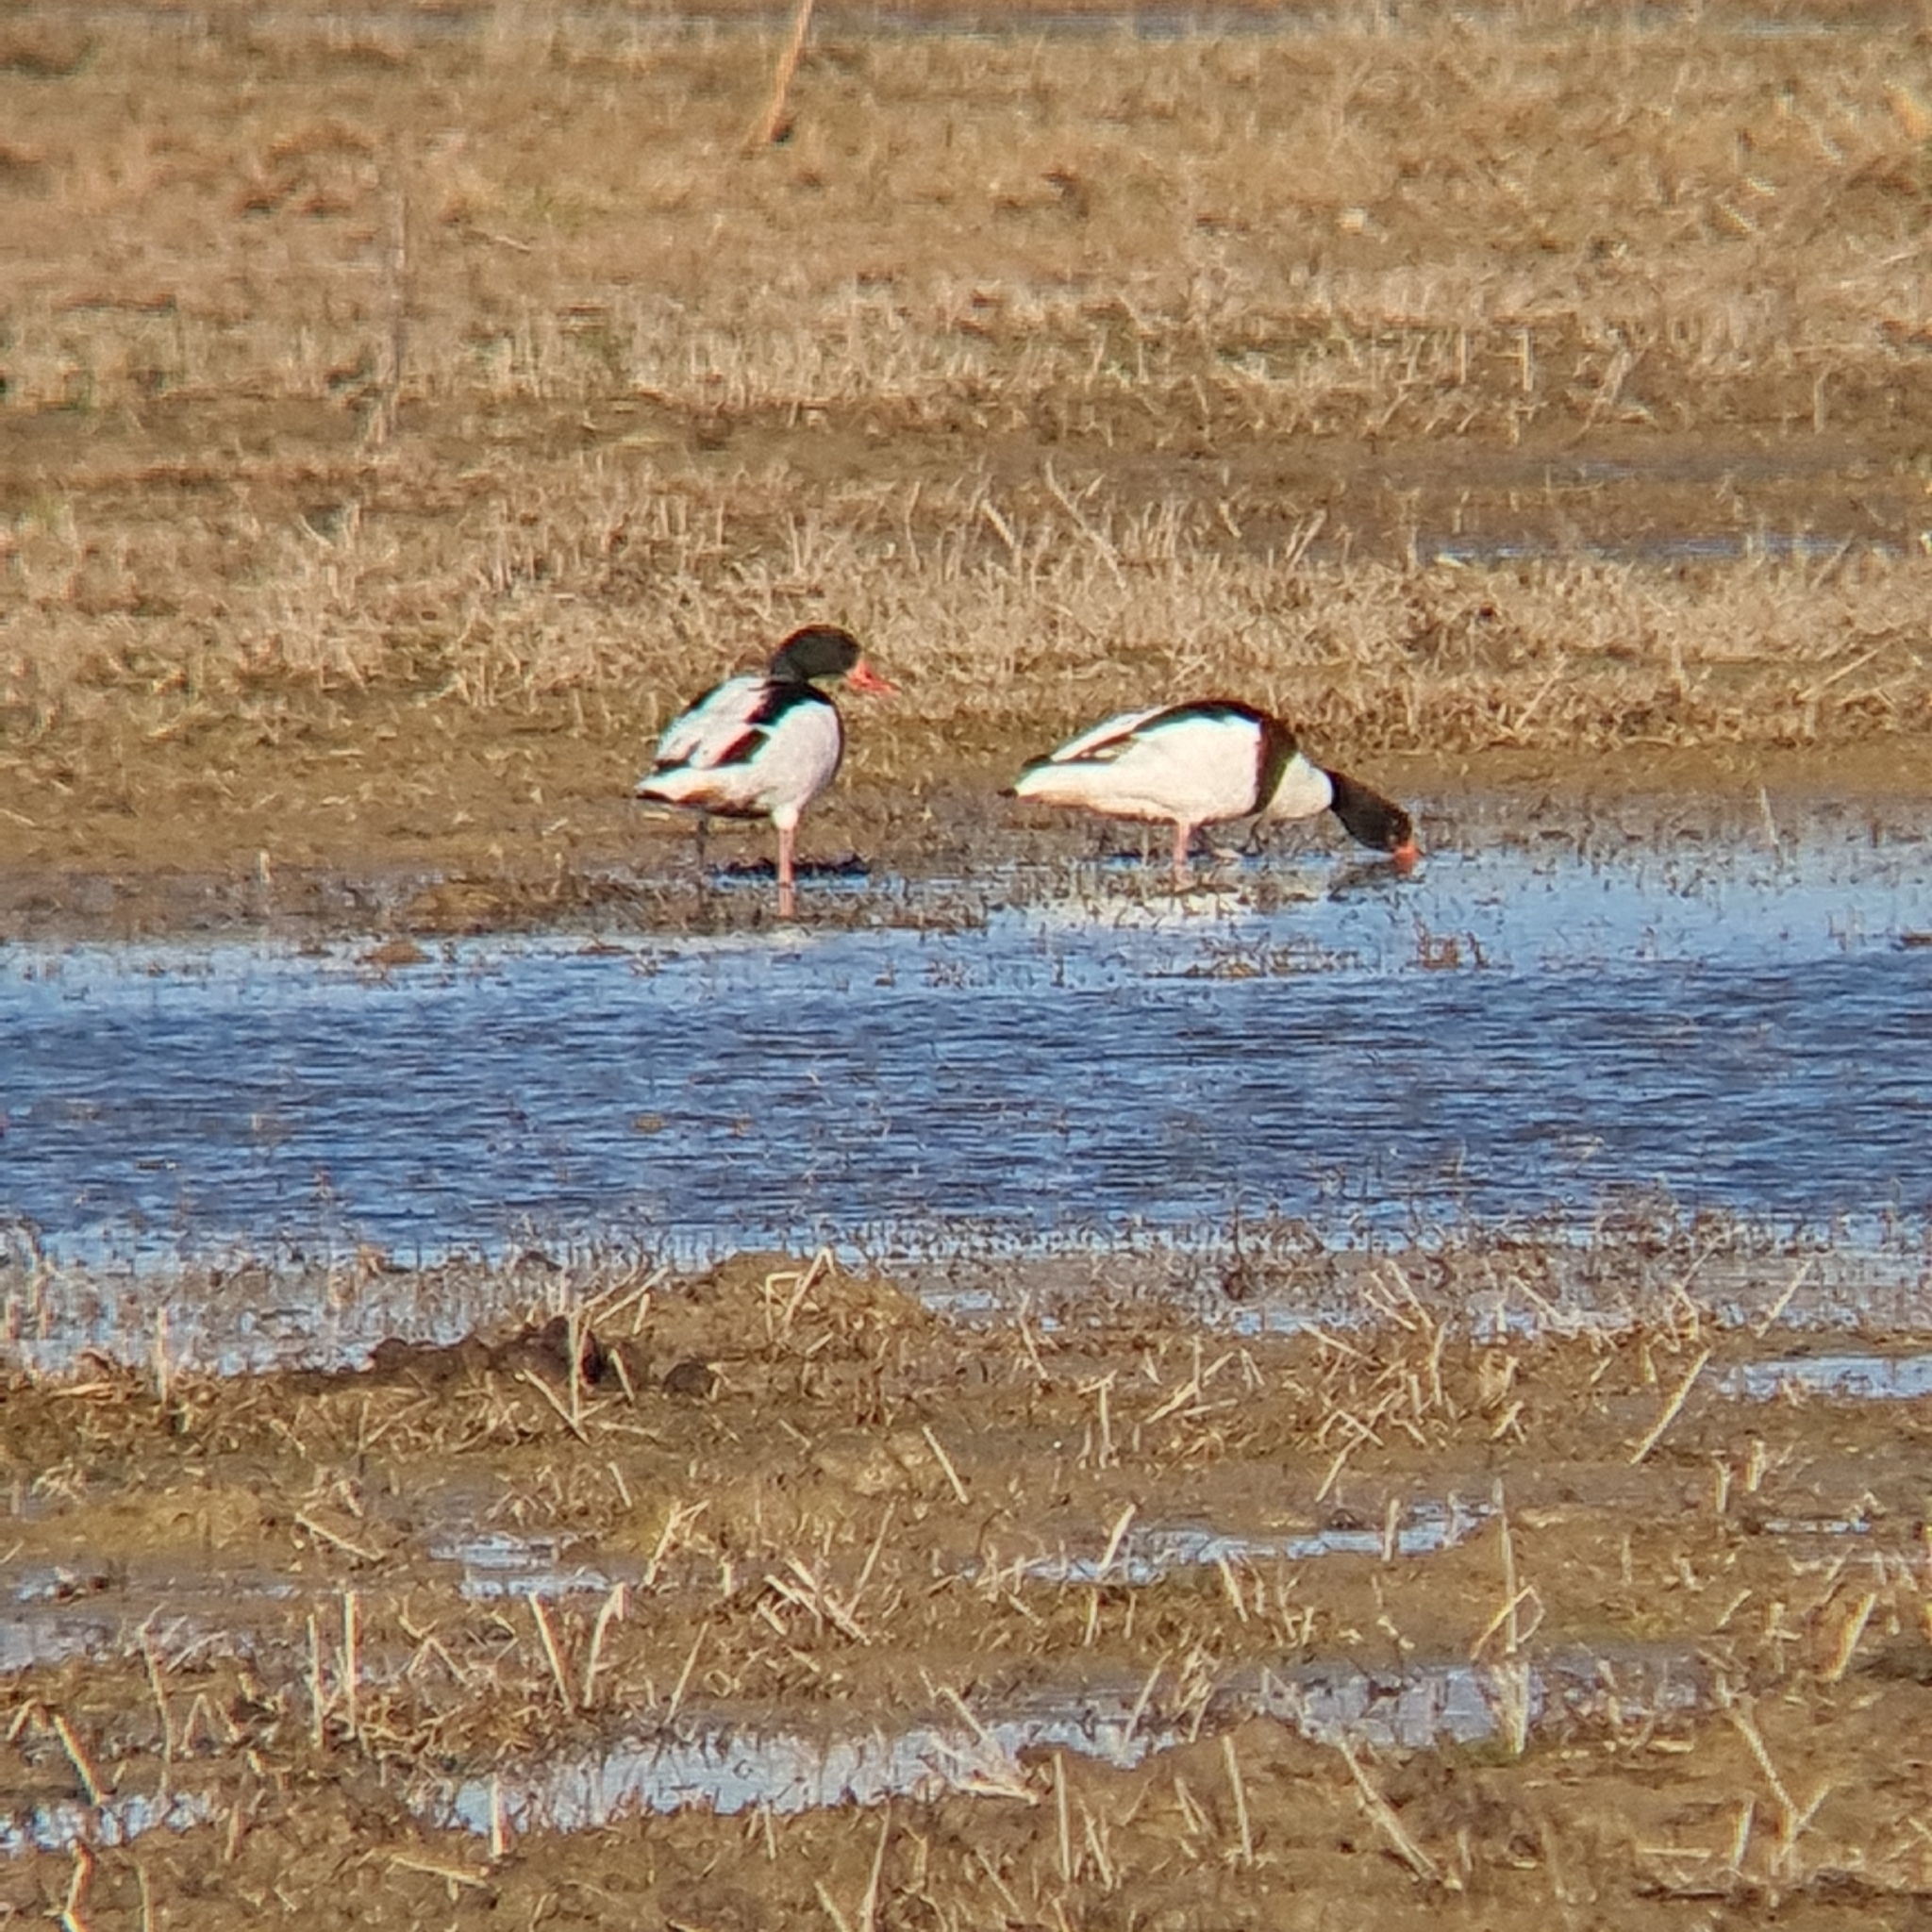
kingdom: Animalia
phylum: Chordata
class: Aves
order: Anseriformes
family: Anatidae
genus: Tadorna
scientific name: Tadorna tadorna
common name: Common shelduck
